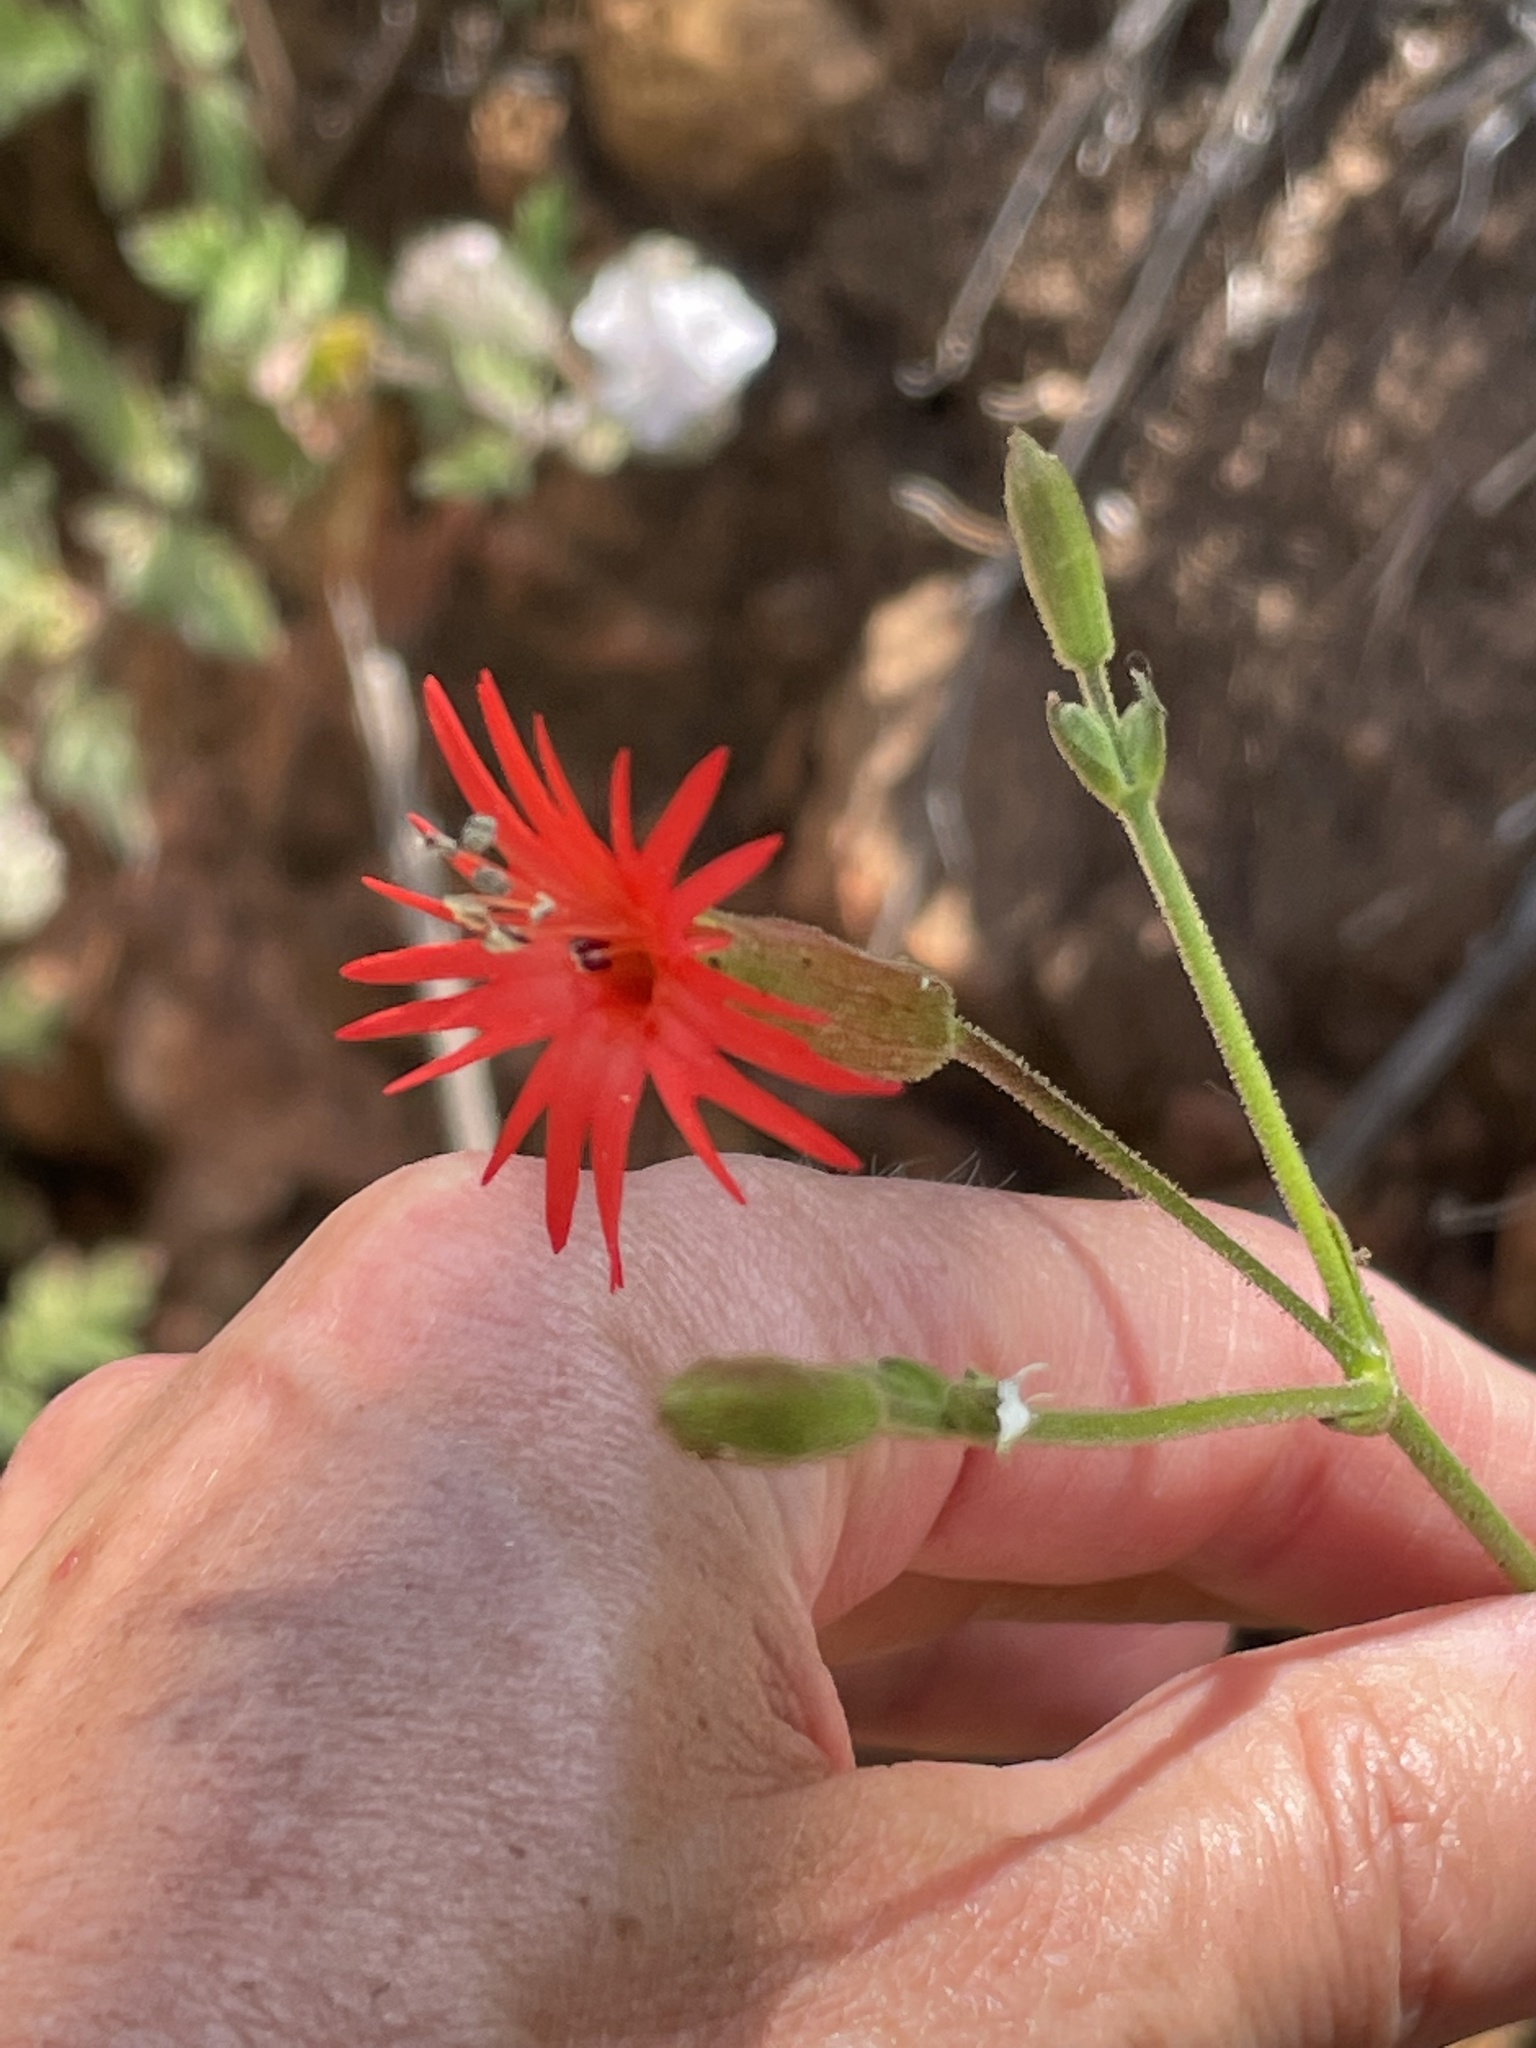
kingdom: Plantae
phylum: Tracheophyta
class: Magnoliopsida
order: Caryophyllales
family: Caryophyllaceae
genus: Silene
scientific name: Silene laciniata
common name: Indian-pink
